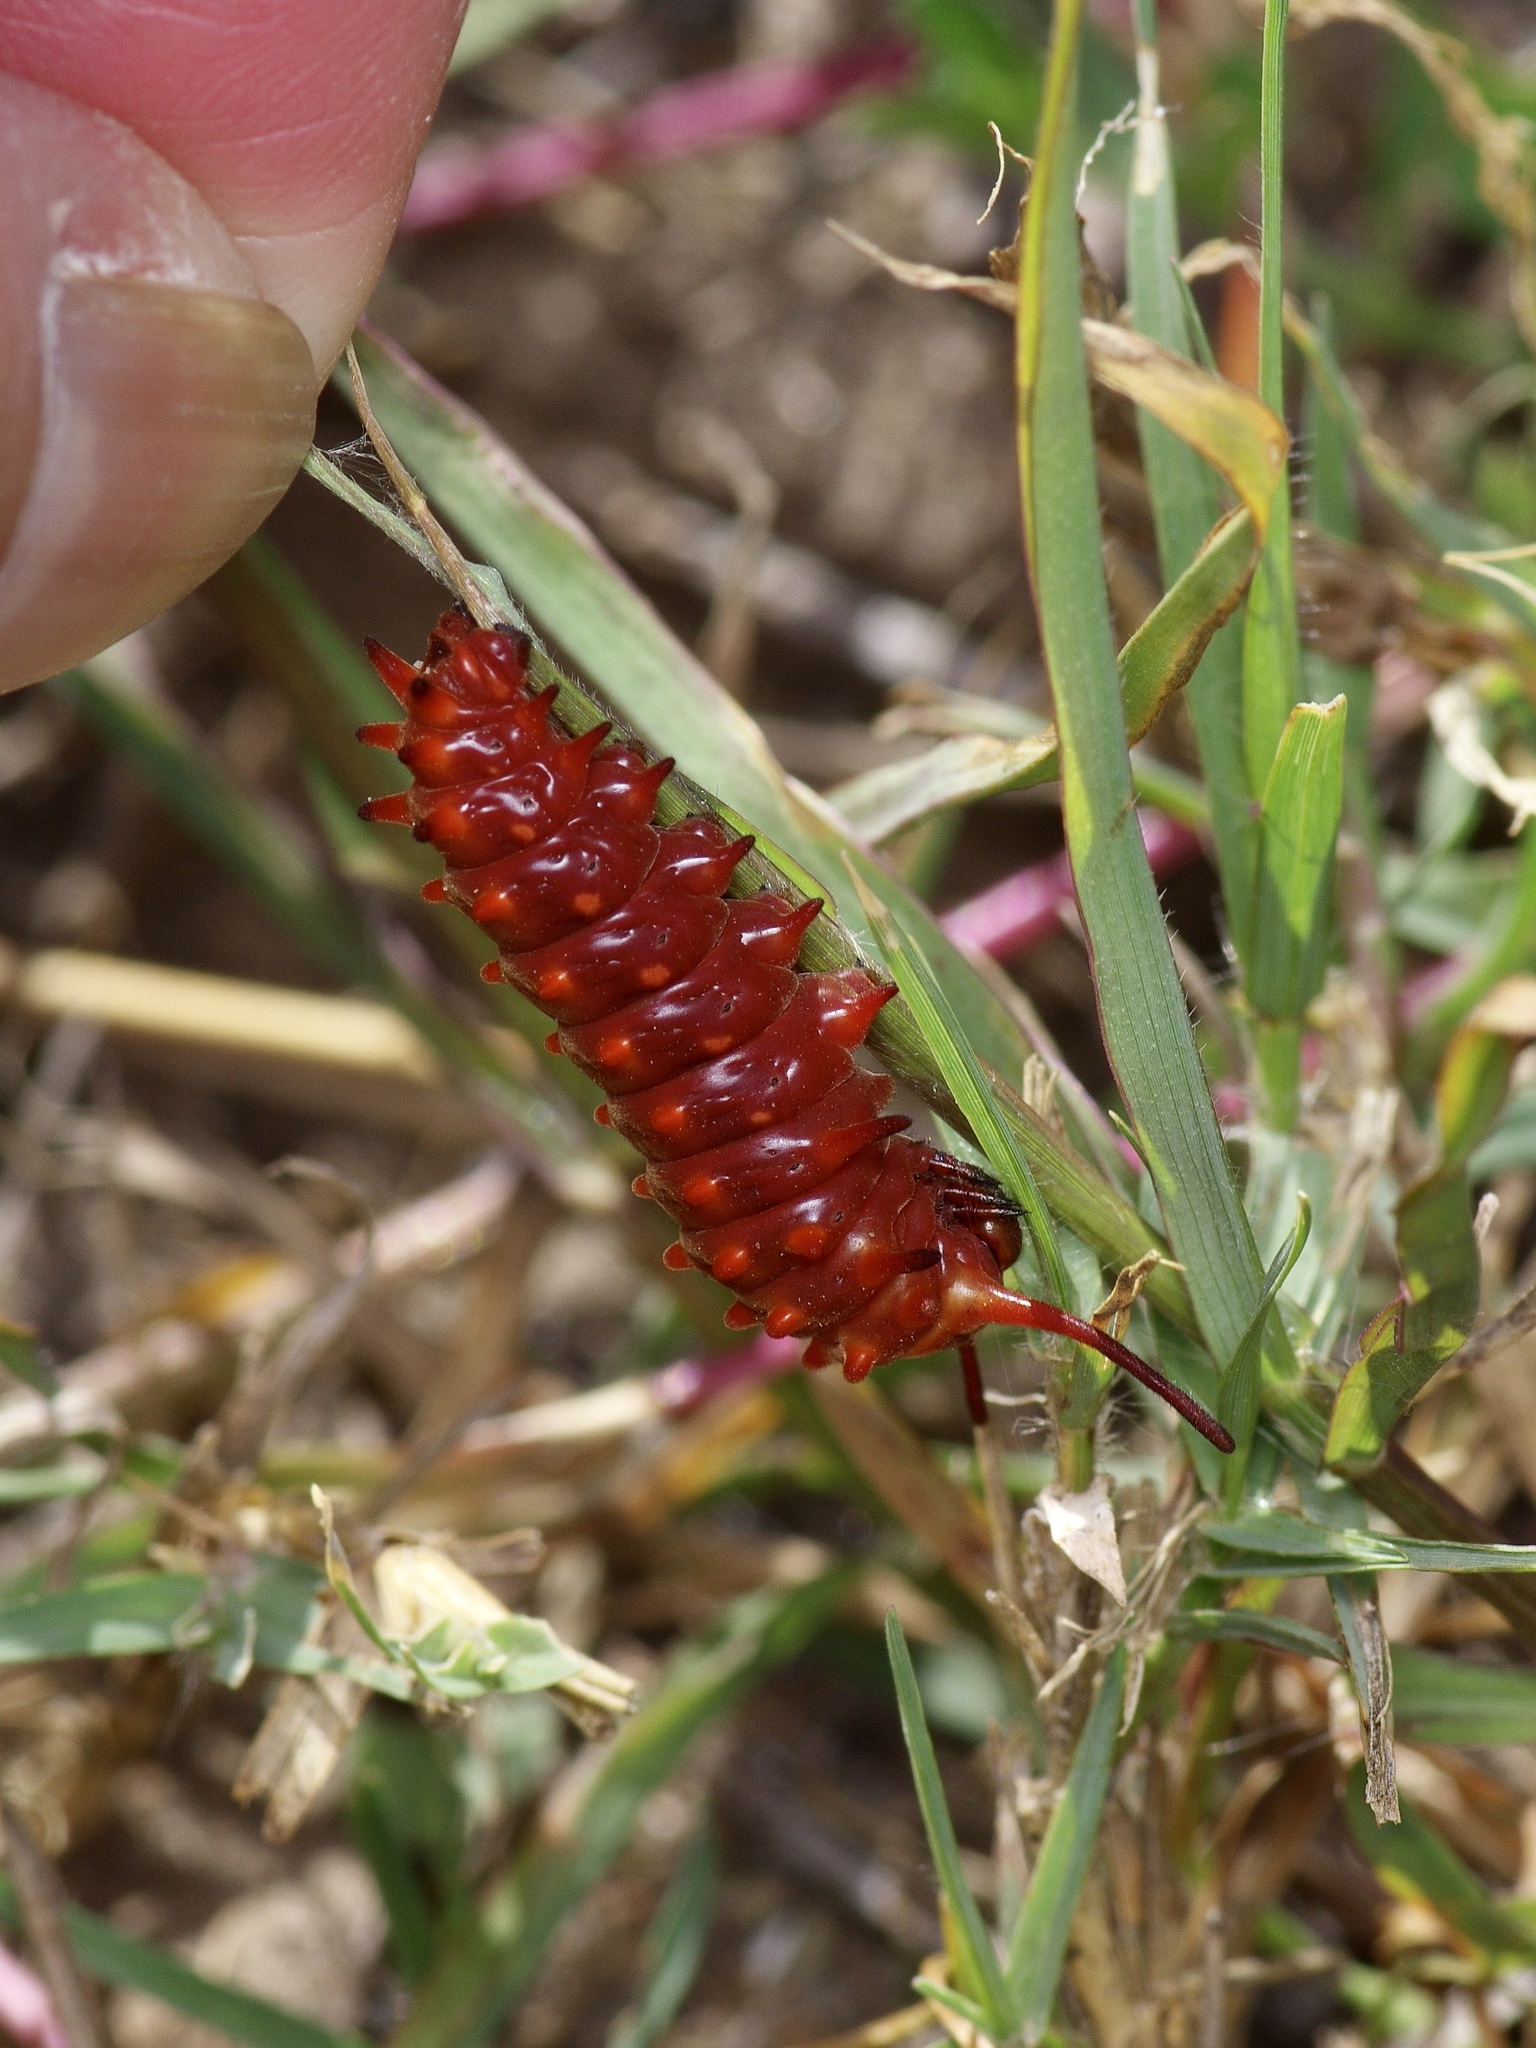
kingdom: Animalia
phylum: Arthropoda
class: Insecta
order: Lepidoptera
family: Papilionidae
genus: Battus
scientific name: Battus philenor
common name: Pipevine swallowtail
